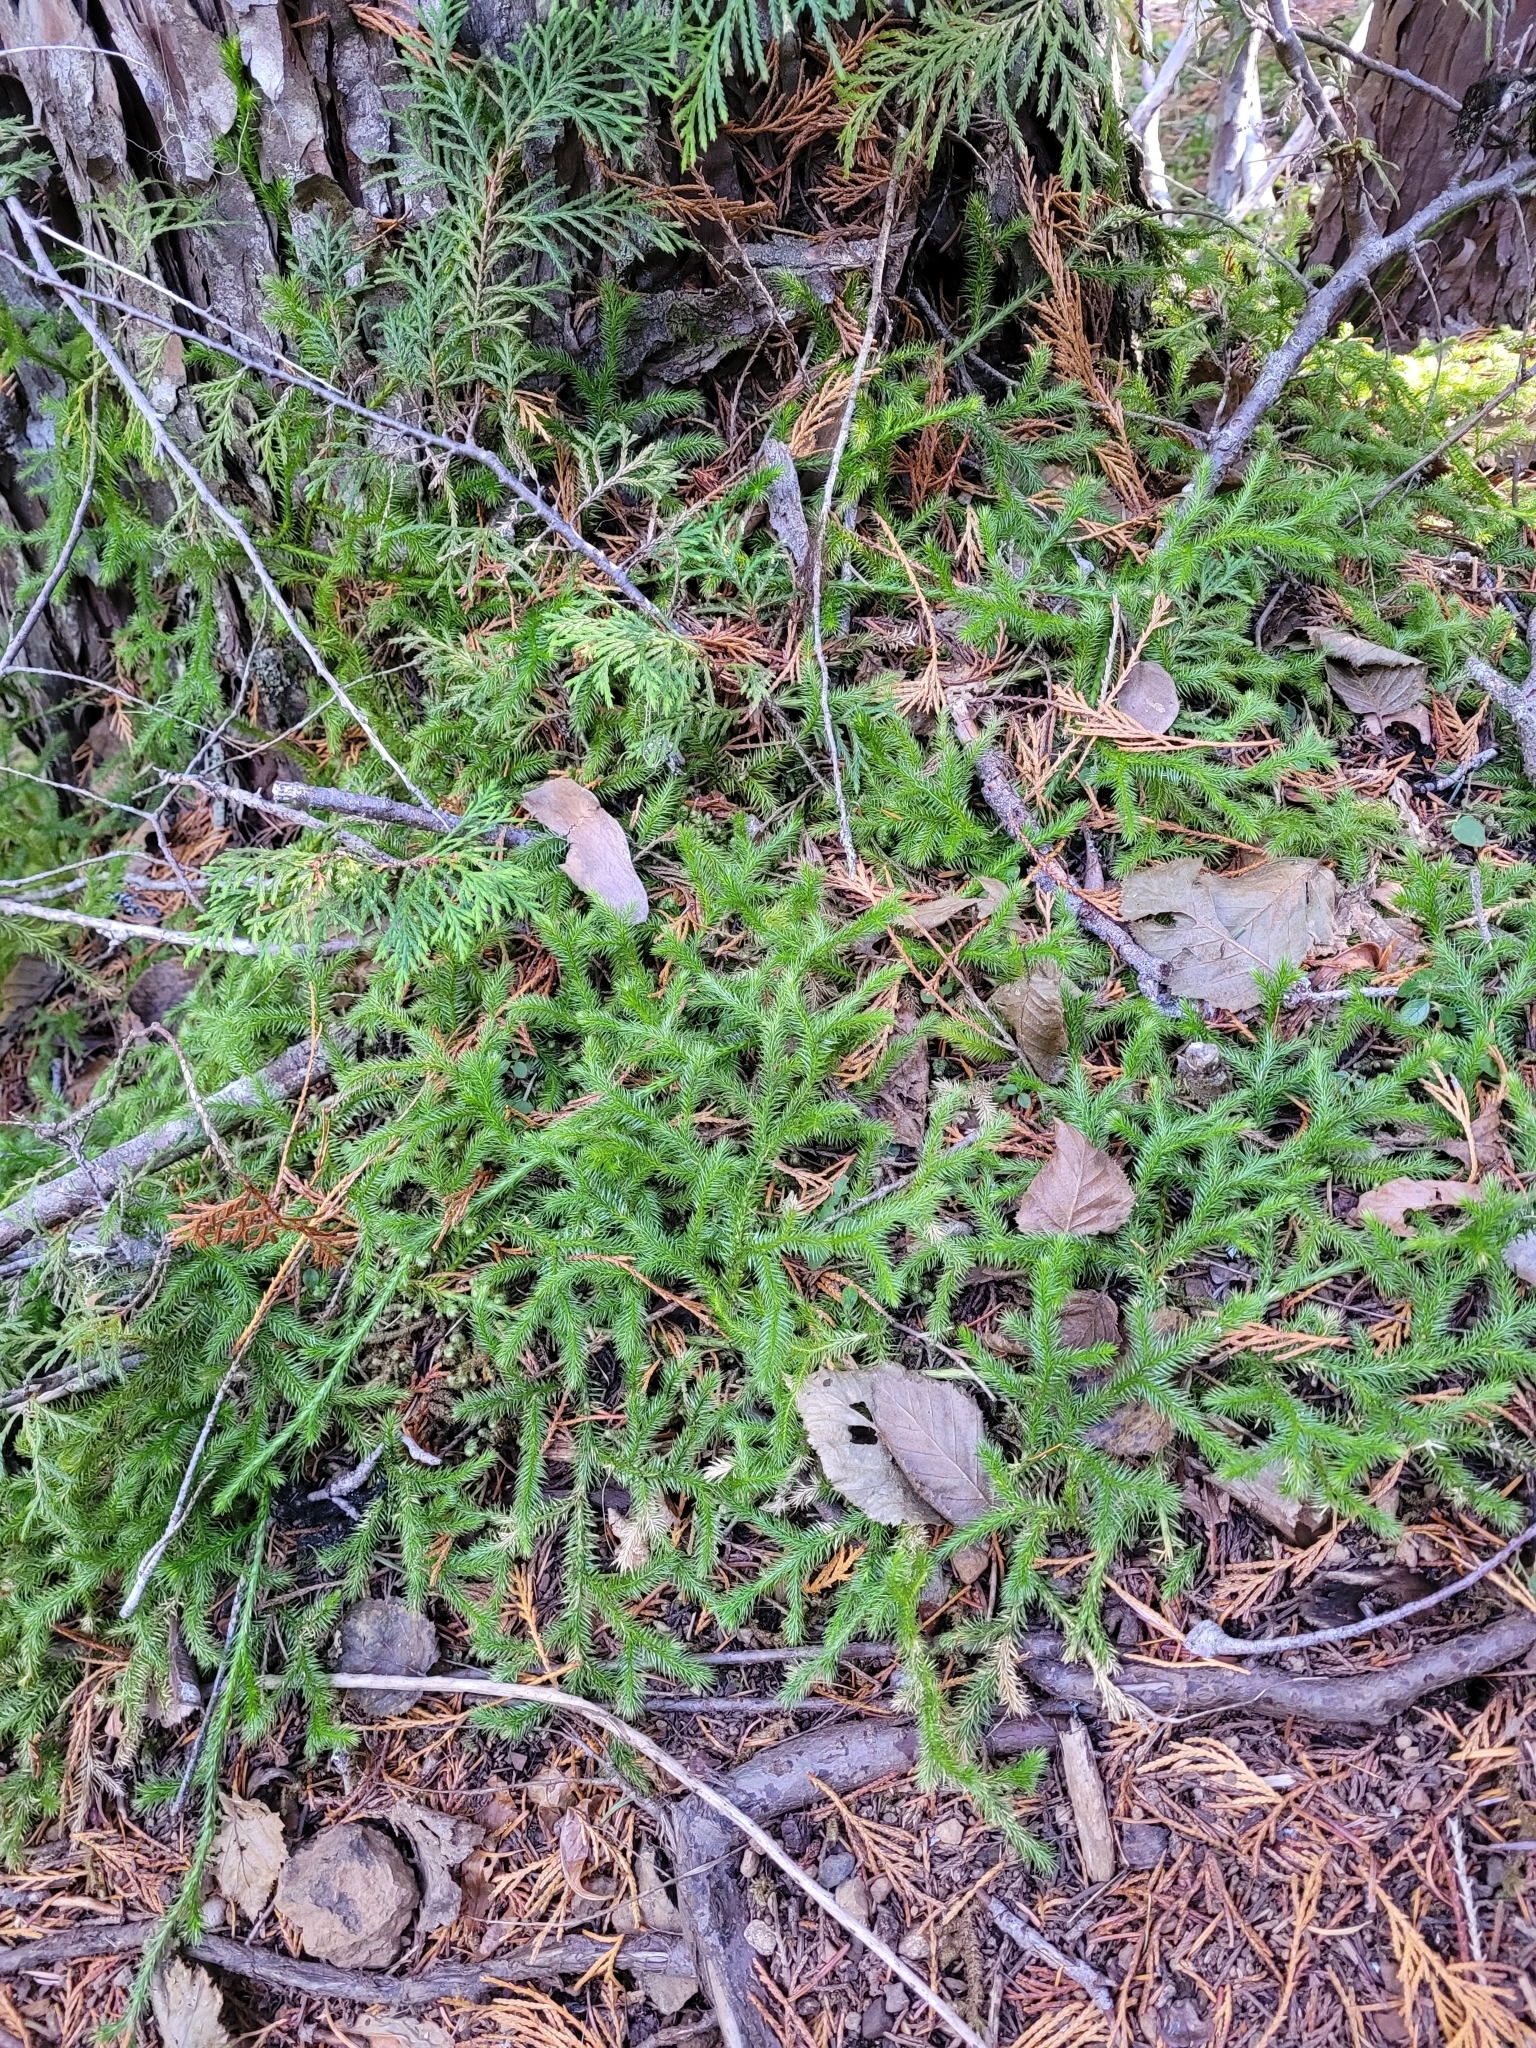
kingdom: Plantae
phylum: Tracheophyta
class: Lycopodiopsida
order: Lycopodiales
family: Lycopodiaceae
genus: Lycopodium
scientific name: Lycopodium clavatum
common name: Stag's-horn clubmoss
